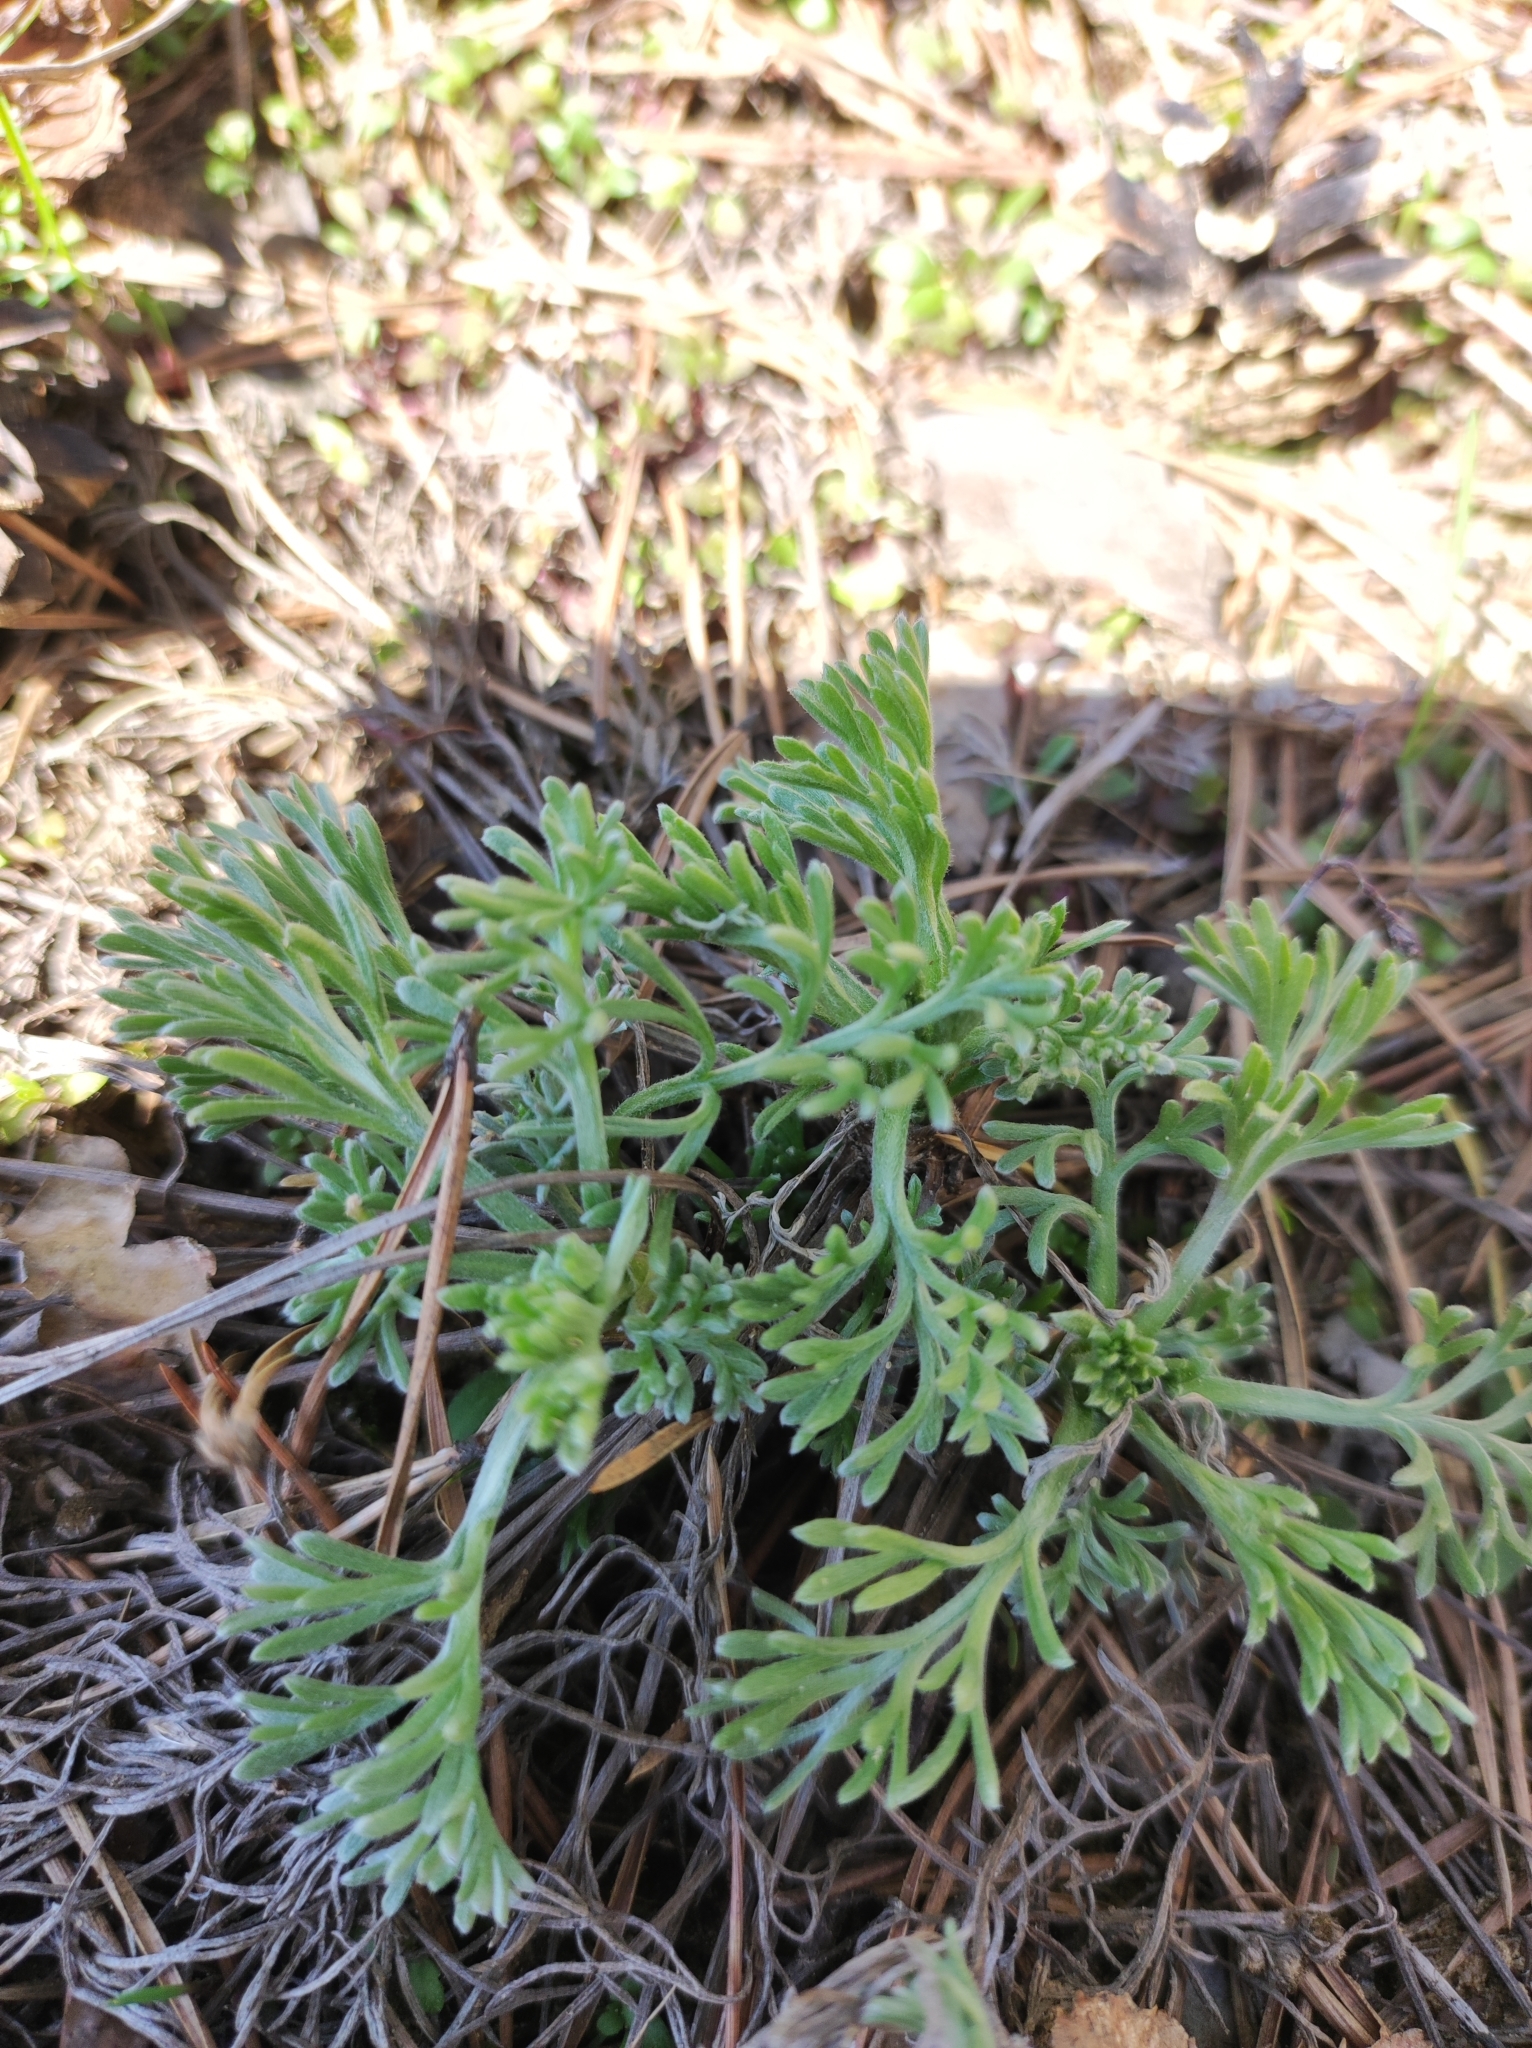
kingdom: Plantae
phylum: Tracheophyta
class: Magnoliopsida
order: Asterales
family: Asteraceae
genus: Artemisia
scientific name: Artemisia campestris
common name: Field wormwood
